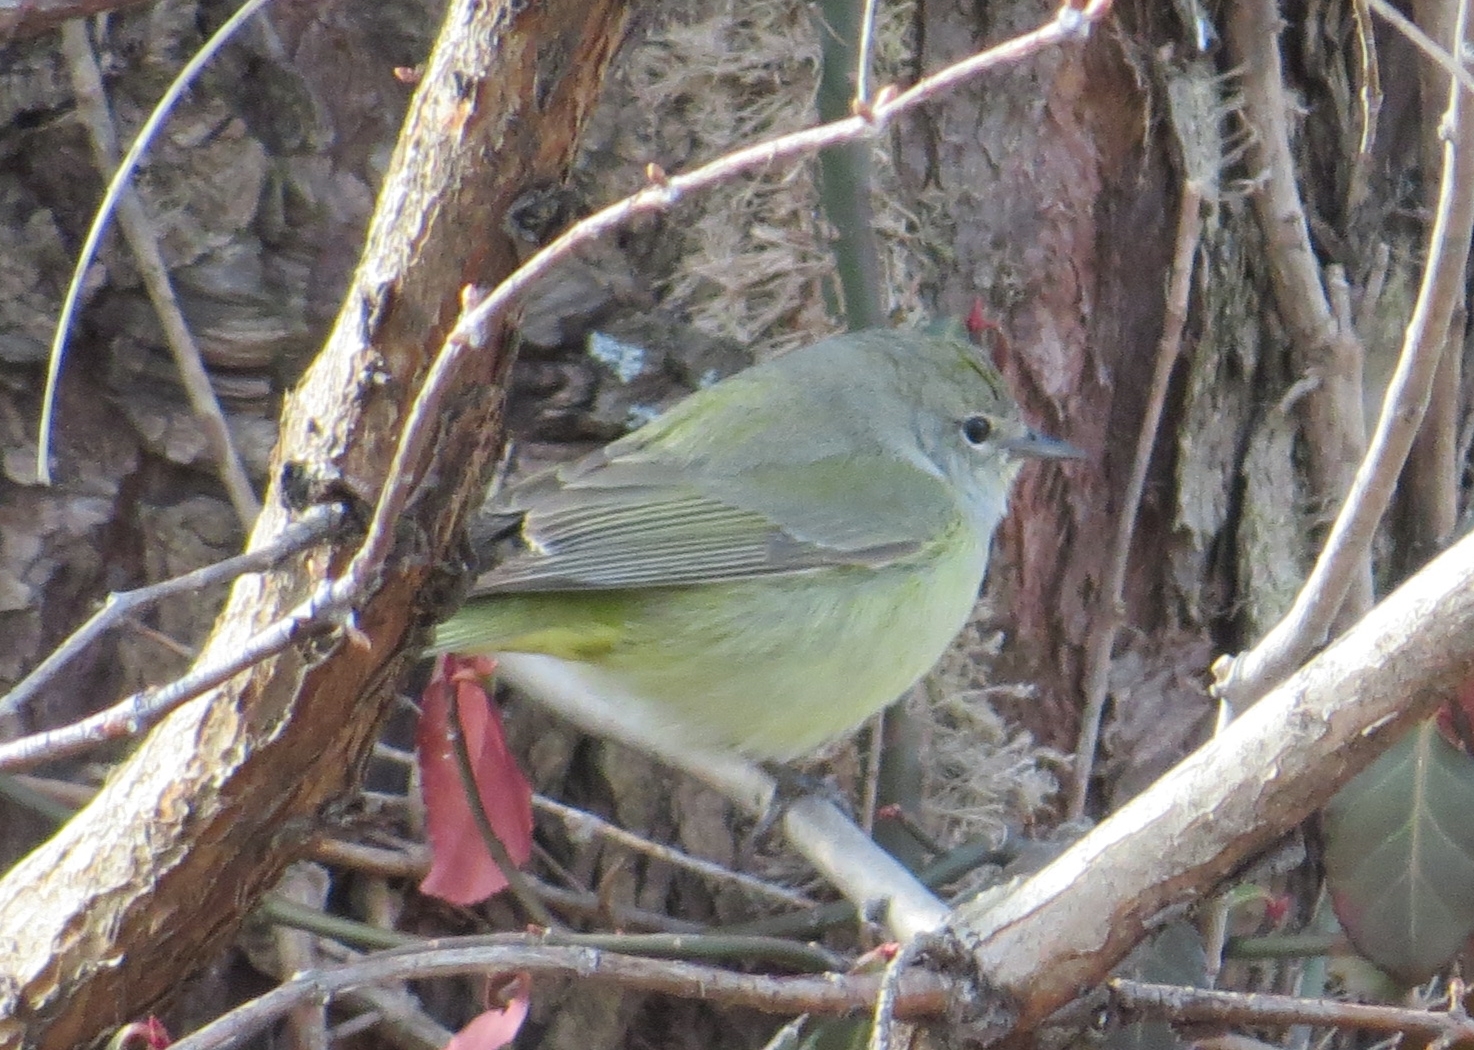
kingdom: Animalia
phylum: Chordata
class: Aves
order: Passeriformes
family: Parulidae
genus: Leiothlypis
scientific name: Leiothlypis celata
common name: Orange-crowned warbler
